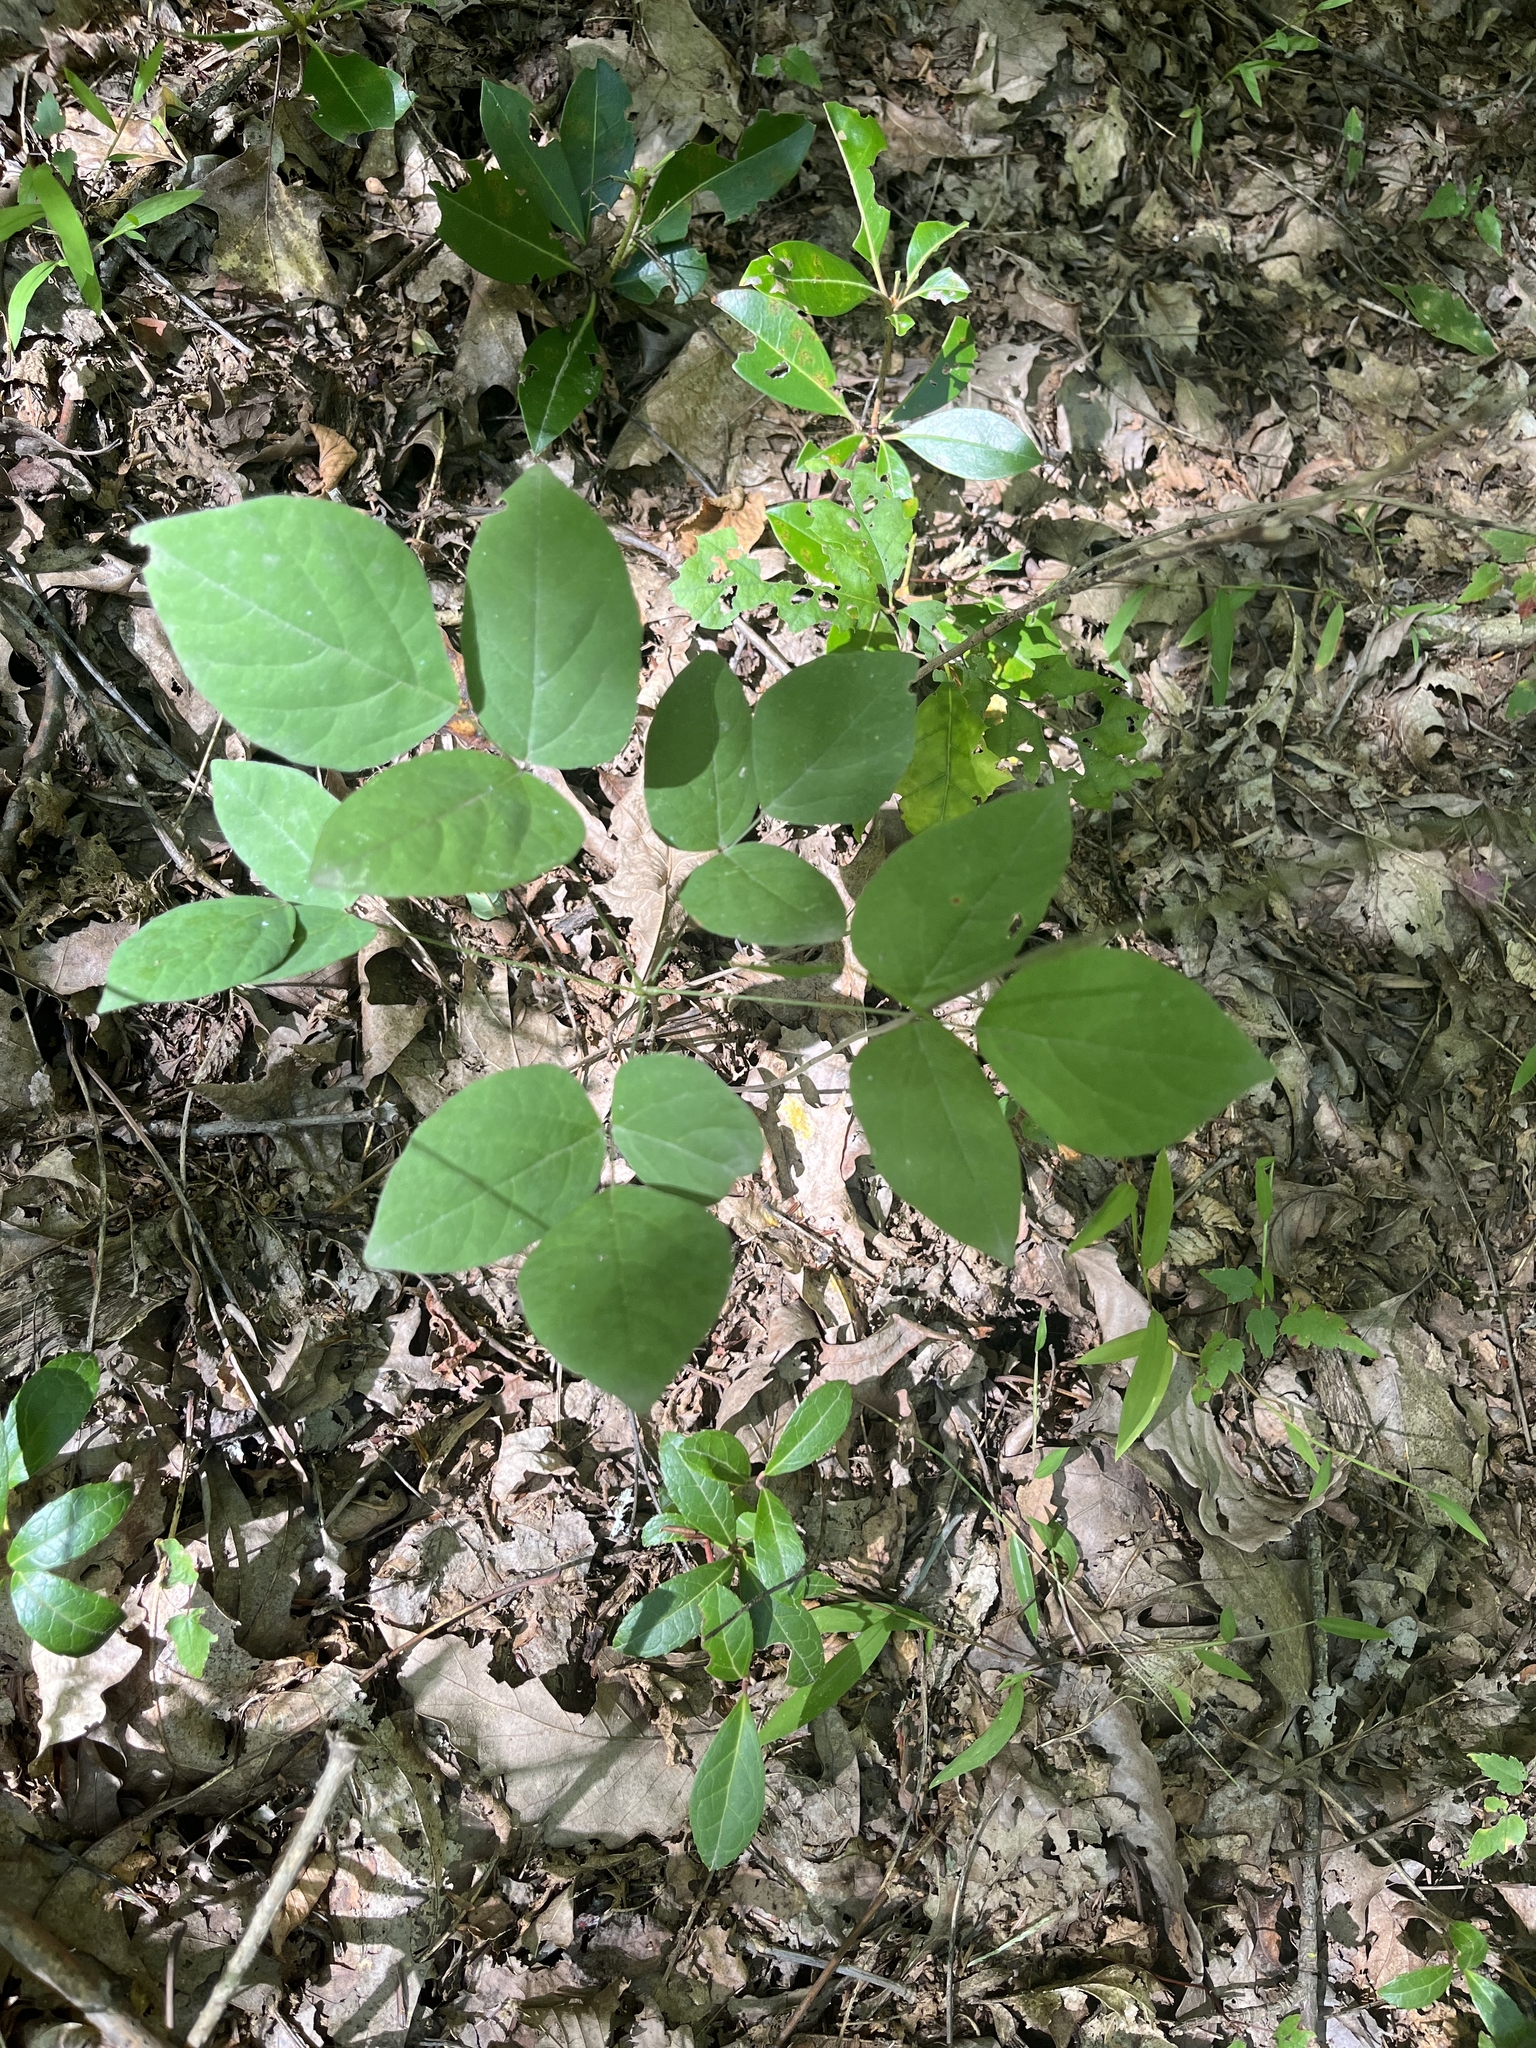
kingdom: Plantae
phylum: Tracheophyta
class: Magnoliopsida
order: Fabales
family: Fabaceae
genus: Hylodesmum
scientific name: Hylodesmum nudiflorum
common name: Bare-stemmed tick-trefoil
